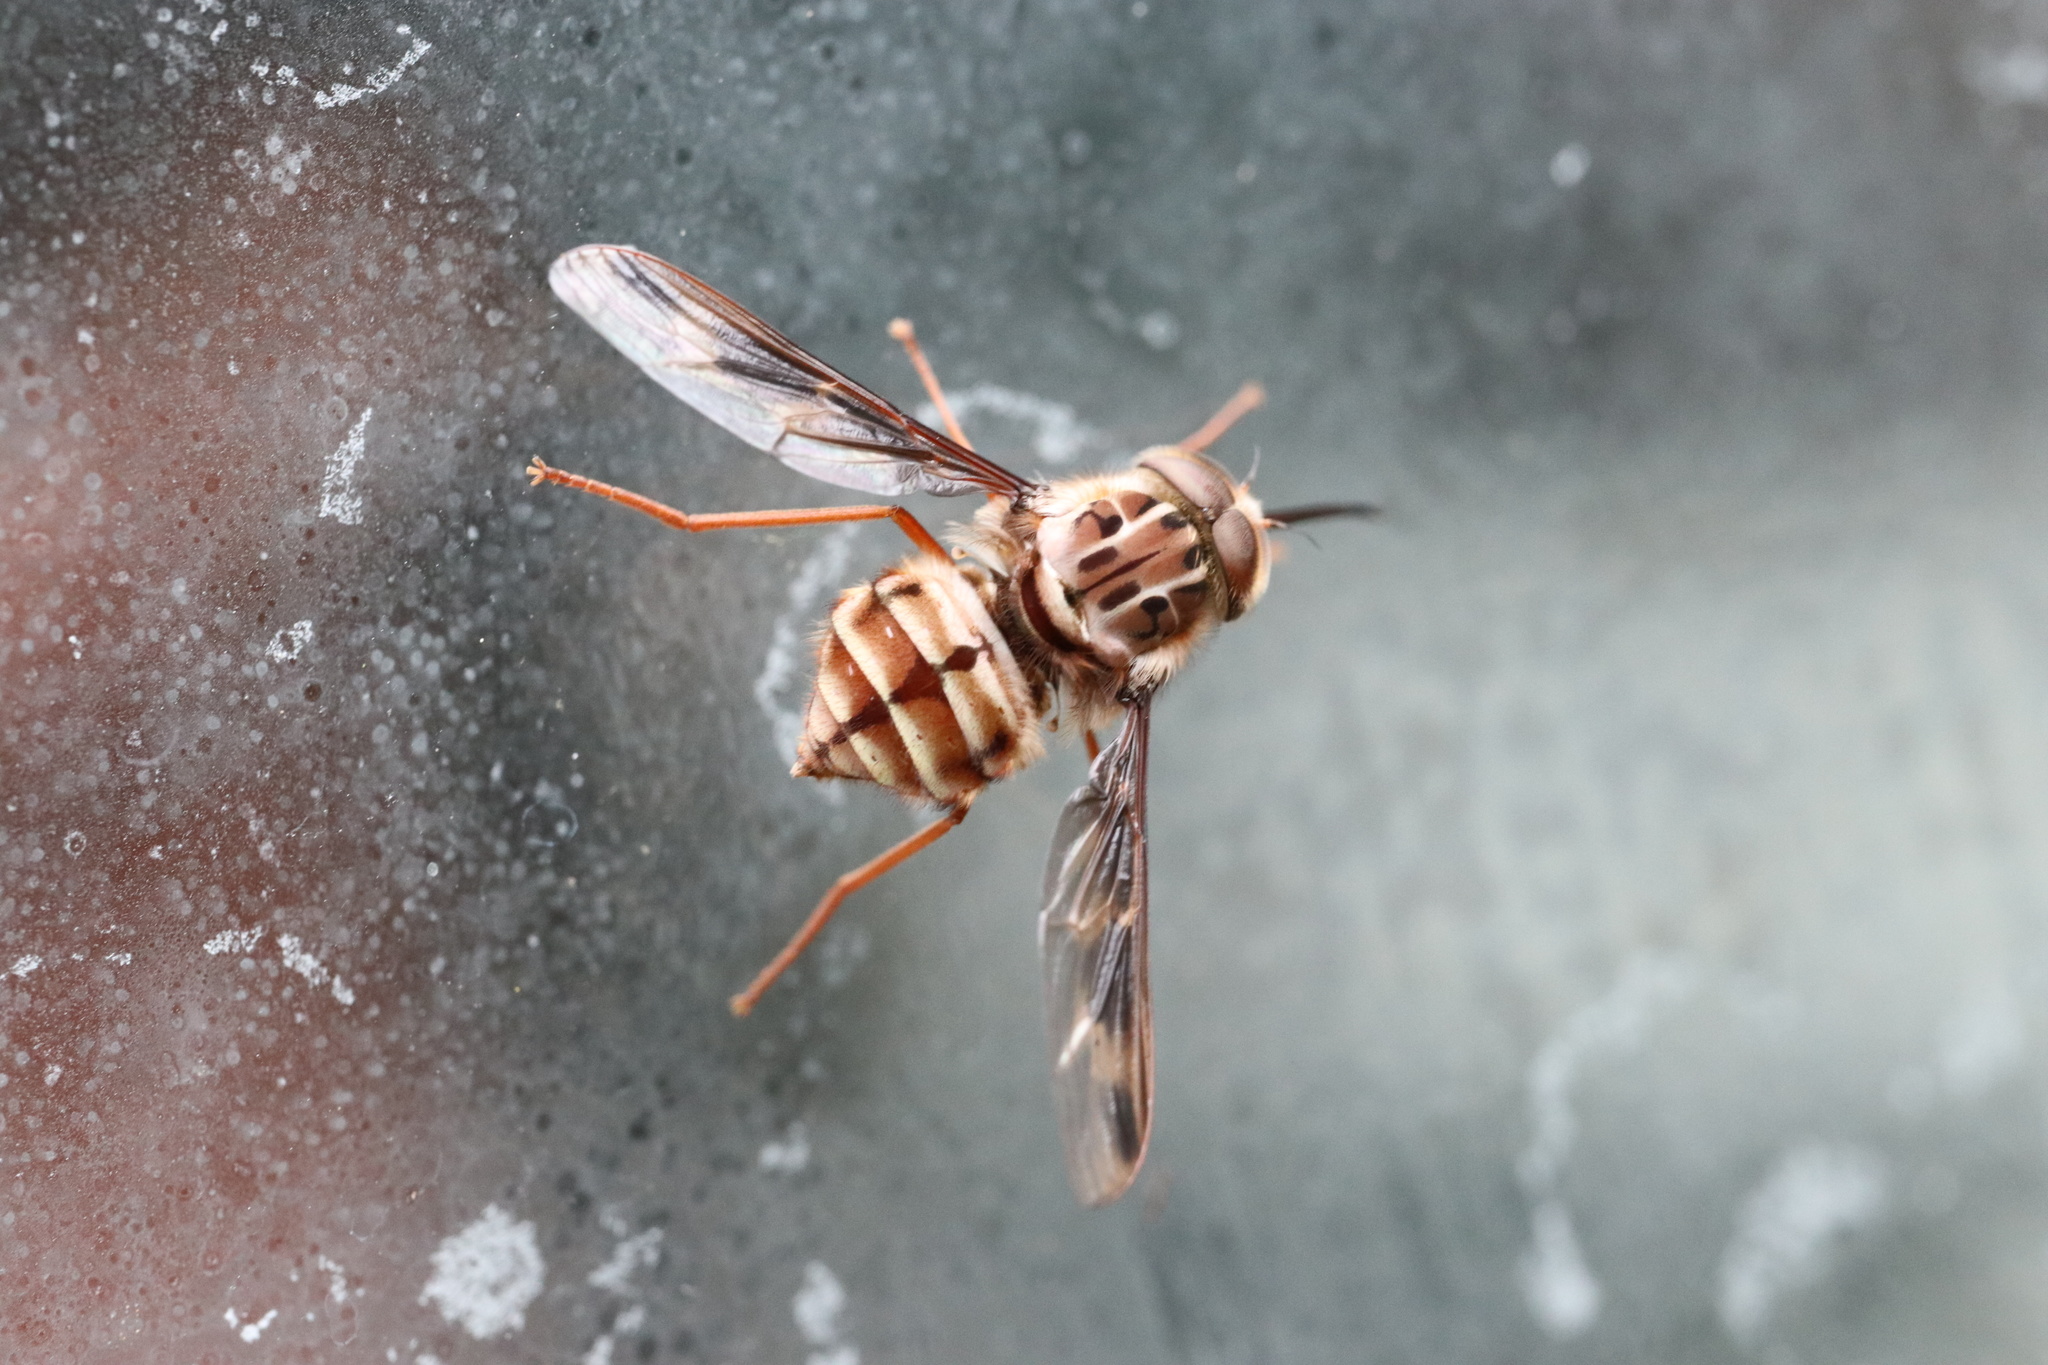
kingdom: Animalia
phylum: Arthropoda
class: Insecta
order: Diptera
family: Nemestrinidae
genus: Trichophthalma
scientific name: Trichophthalma nubipennis
